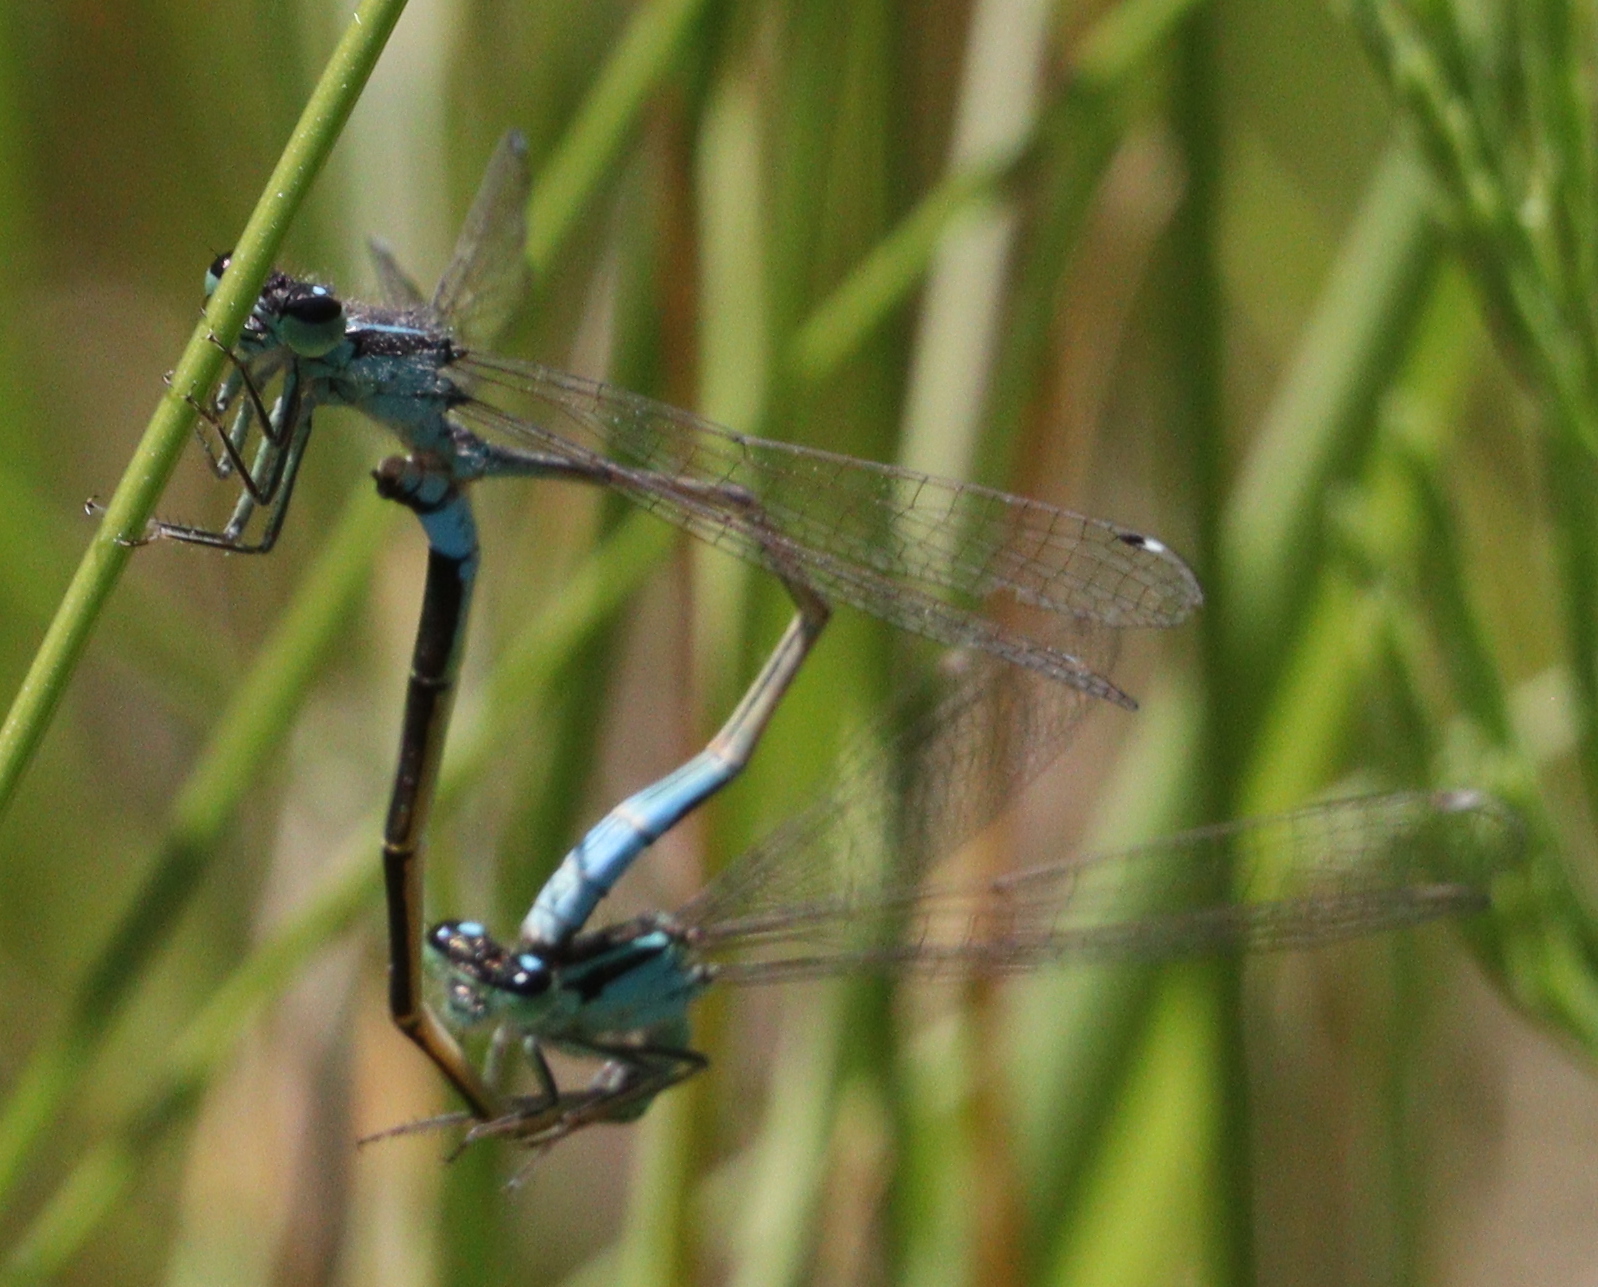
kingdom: Animalia
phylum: Arthropoda
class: Insecta
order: Odonata
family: Coenagrionidae
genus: Ischnura
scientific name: Ischnura elegans
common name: Blue-tailed damselfly
